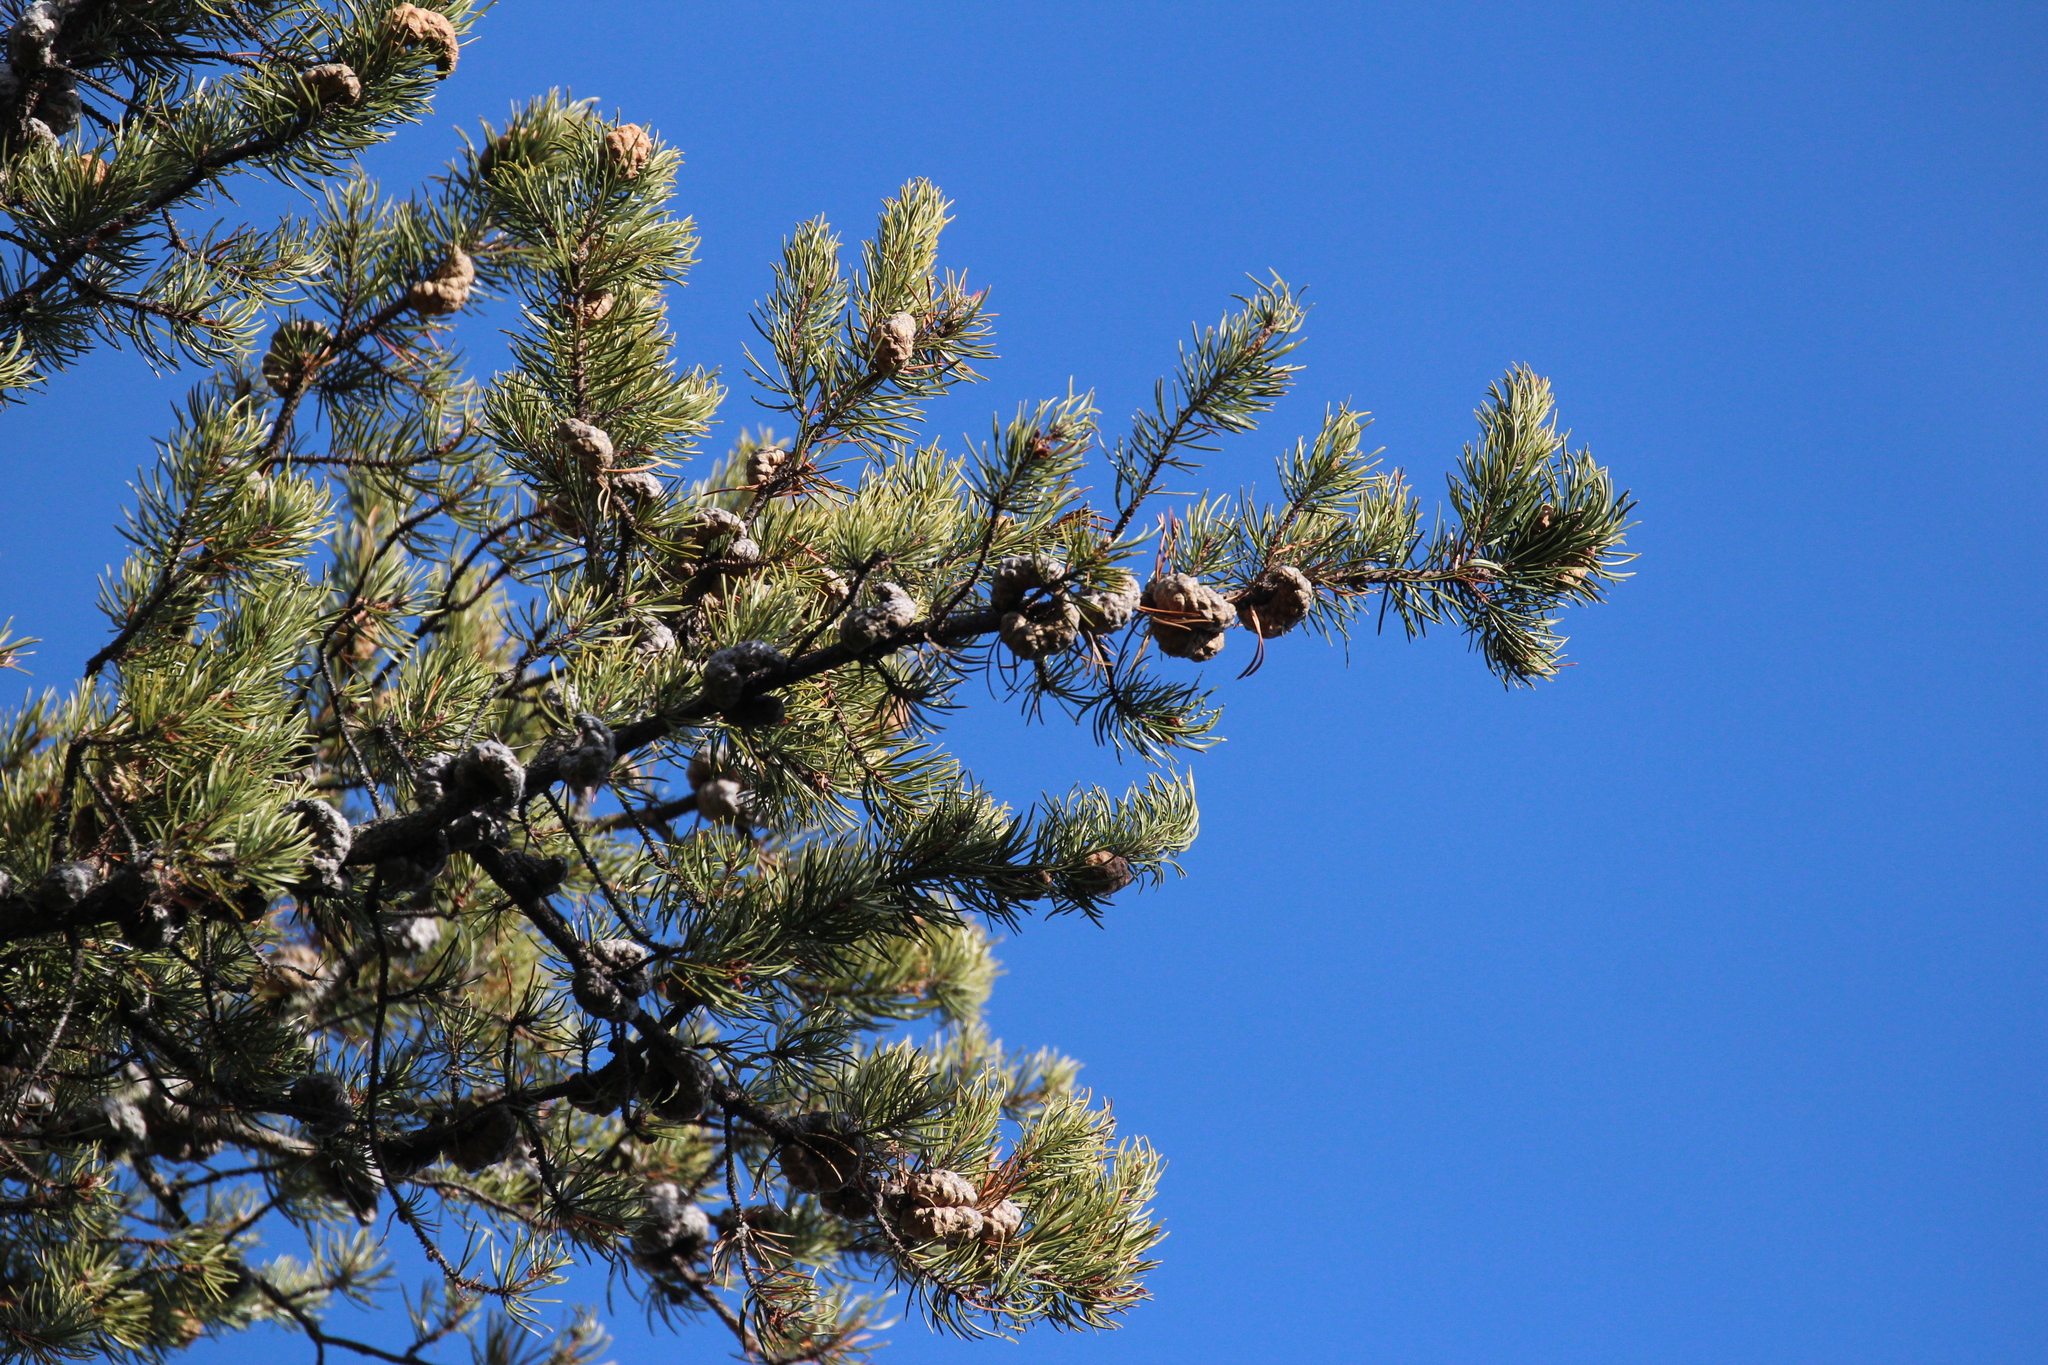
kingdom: Plantae
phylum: Tracheophyta
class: Pinopsida
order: Pinales
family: Pinaceae
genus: Pinus
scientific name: Pinus banksiana
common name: Jack pine
